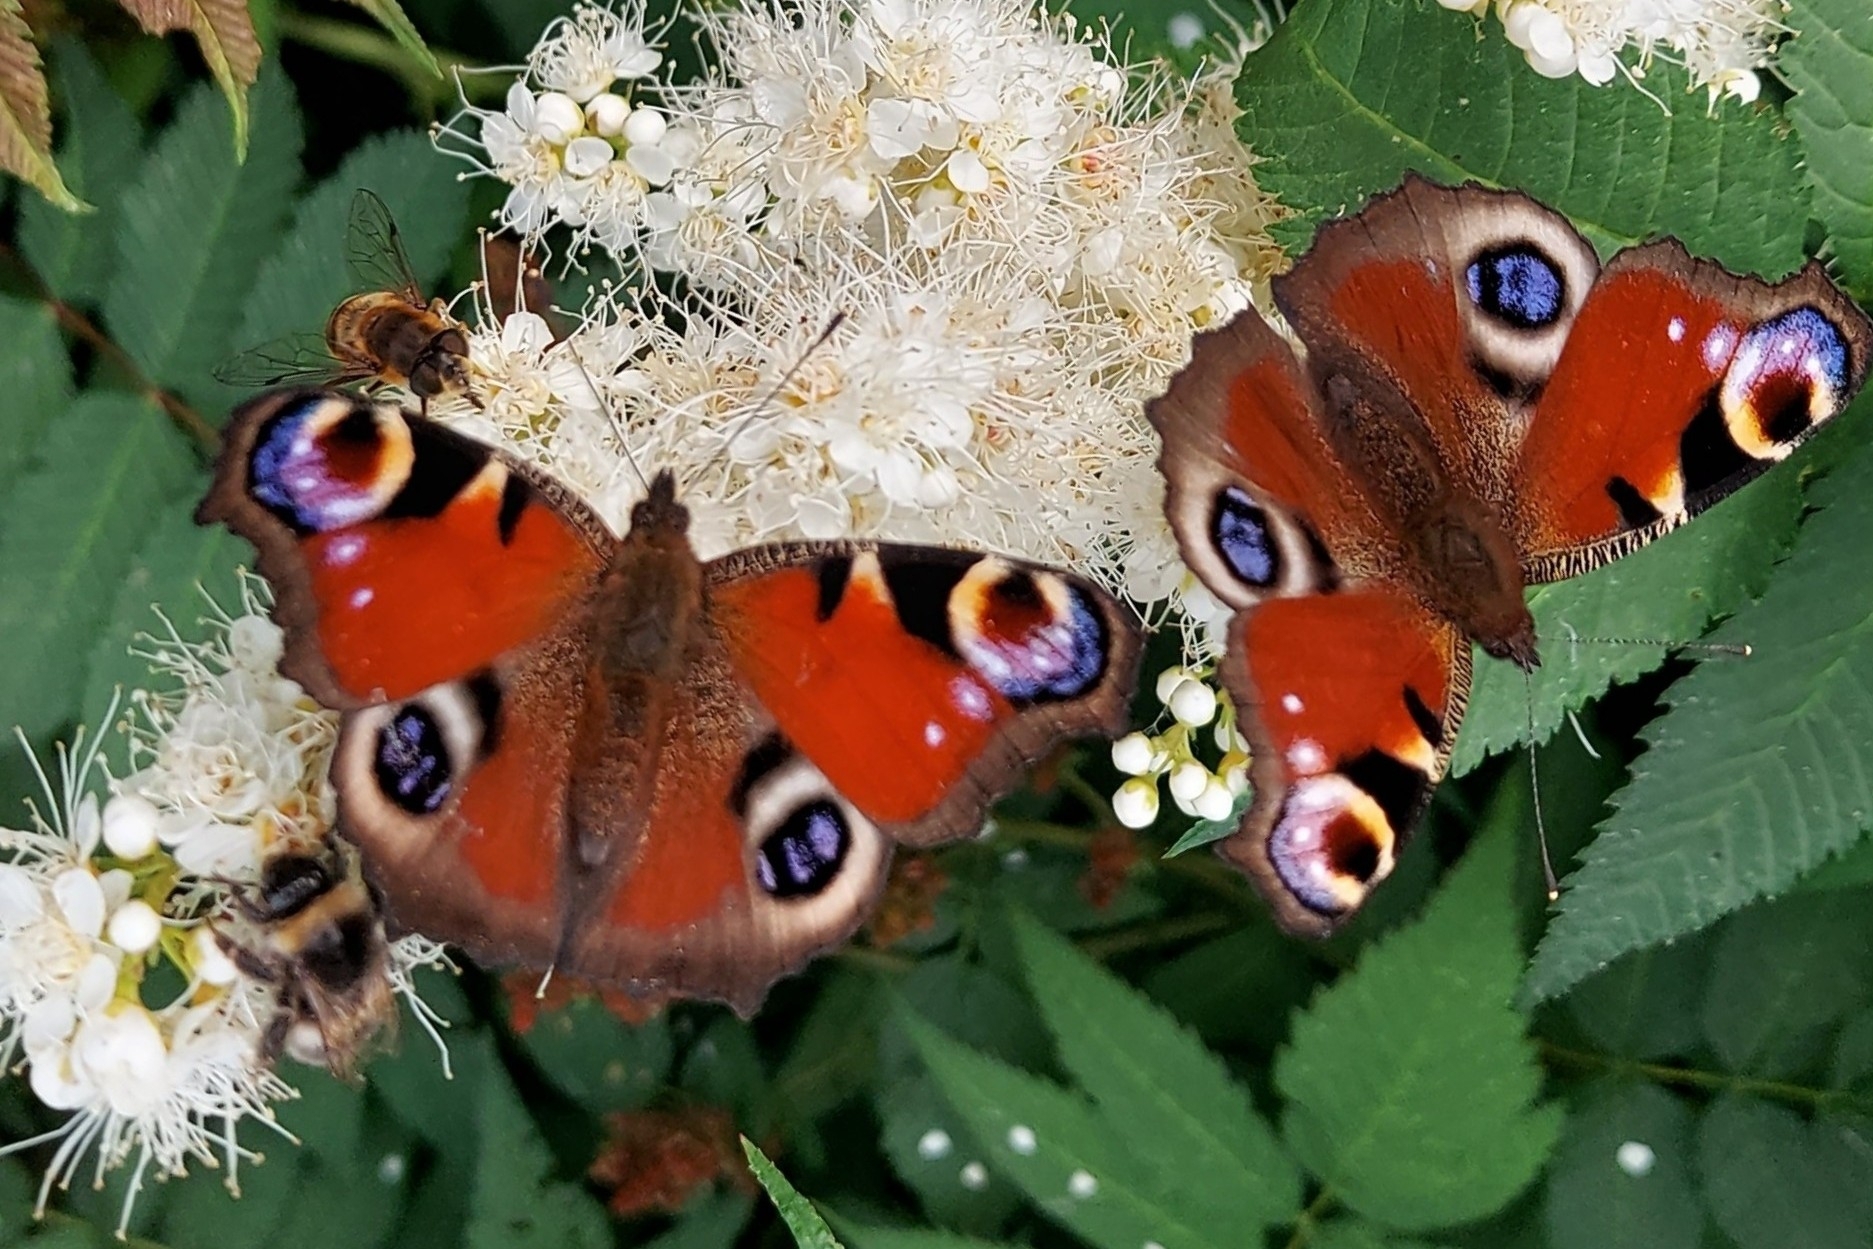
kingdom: Animalia
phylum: Arthropoda
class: Insecta
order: Lepidoptera
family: Nymphalidae
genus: Aglais
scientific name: Aglais io
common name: Peacock
